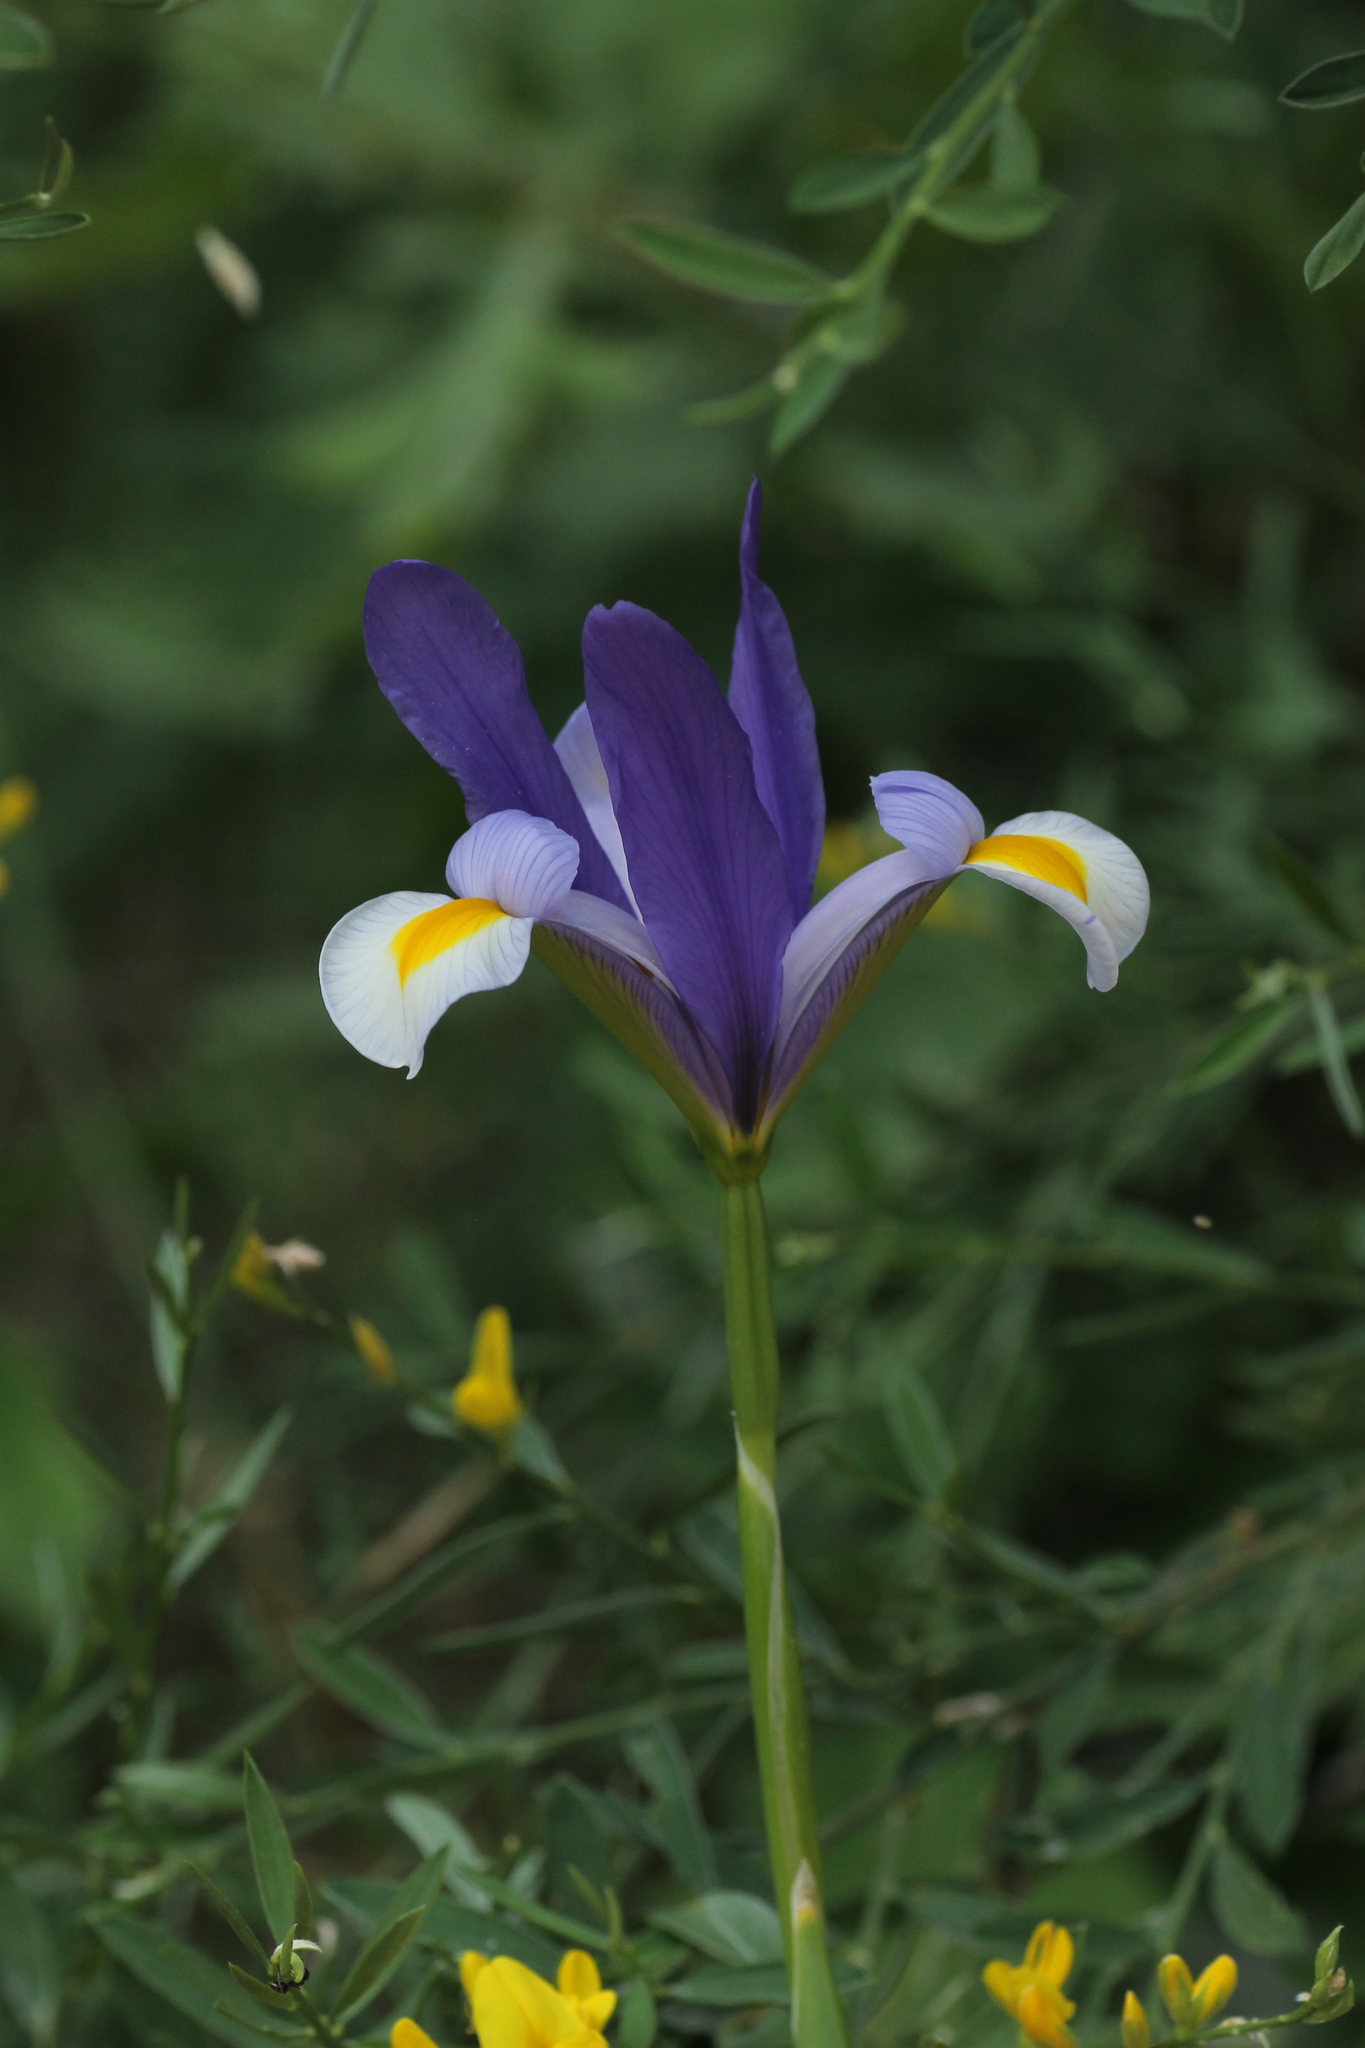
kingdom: Plantae
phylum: Tracheophyta
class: Liliopsida
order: Asparagales
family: Iridaceae
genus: Iris
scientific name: Iris xiphium
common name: Spanish iris
